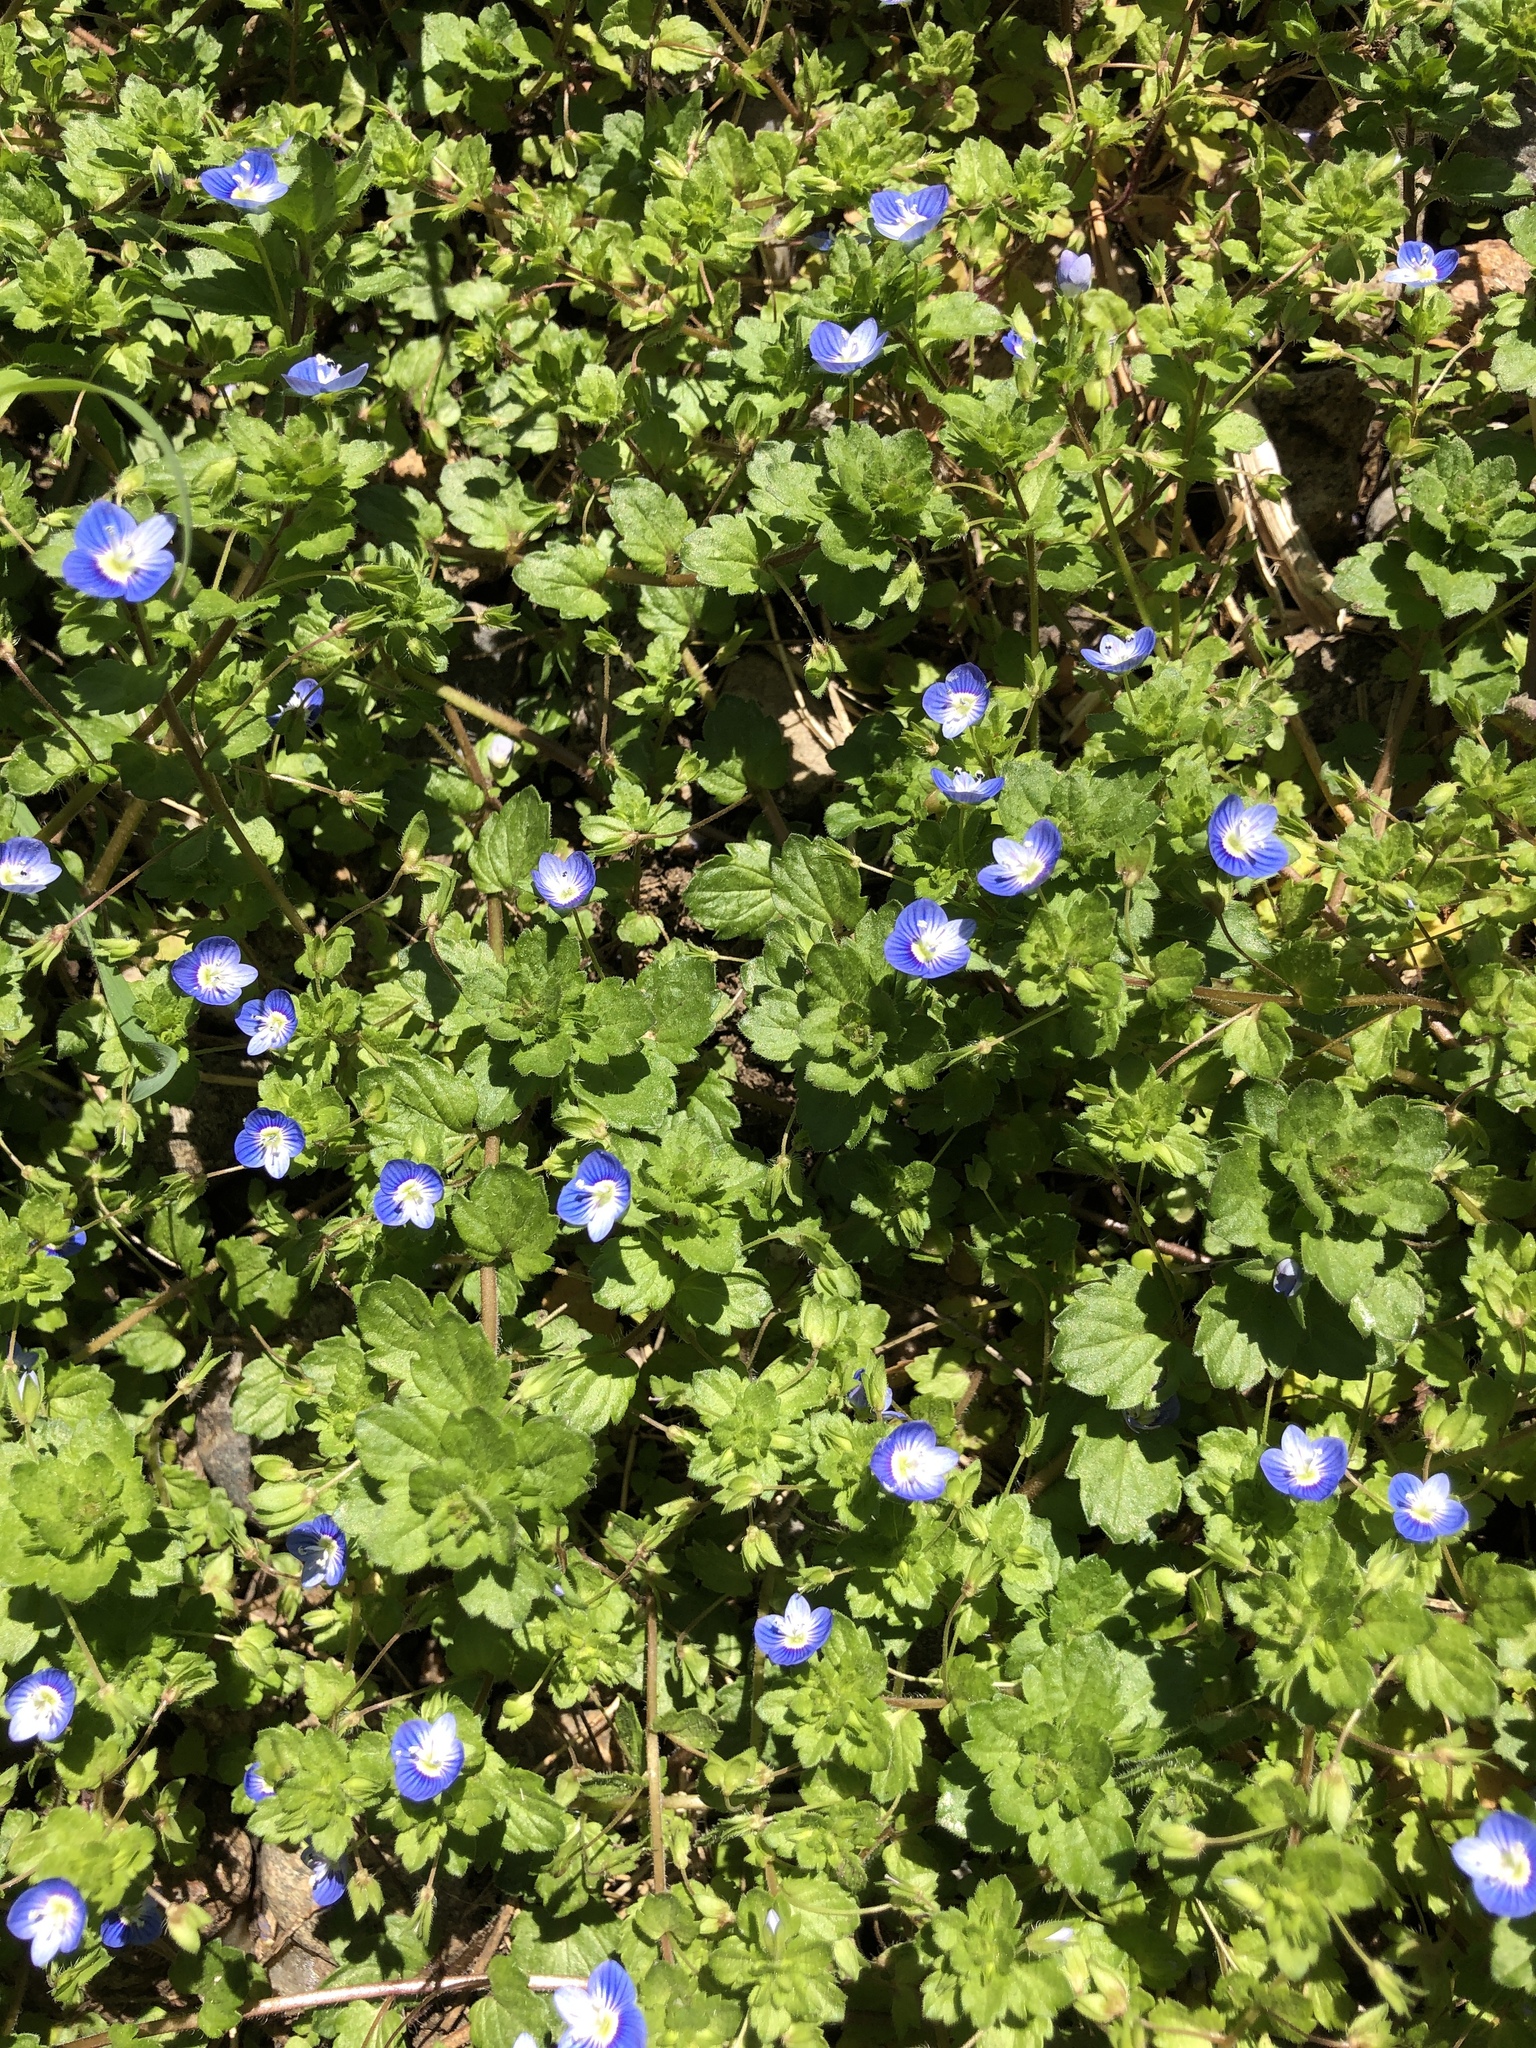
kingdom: Plantae
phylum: Tracheophyta
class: Magnoliopsida
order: Lamiales
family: Plantaginaceae
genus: Veronica
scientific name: Veronica persica
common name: Common field-speedwell
